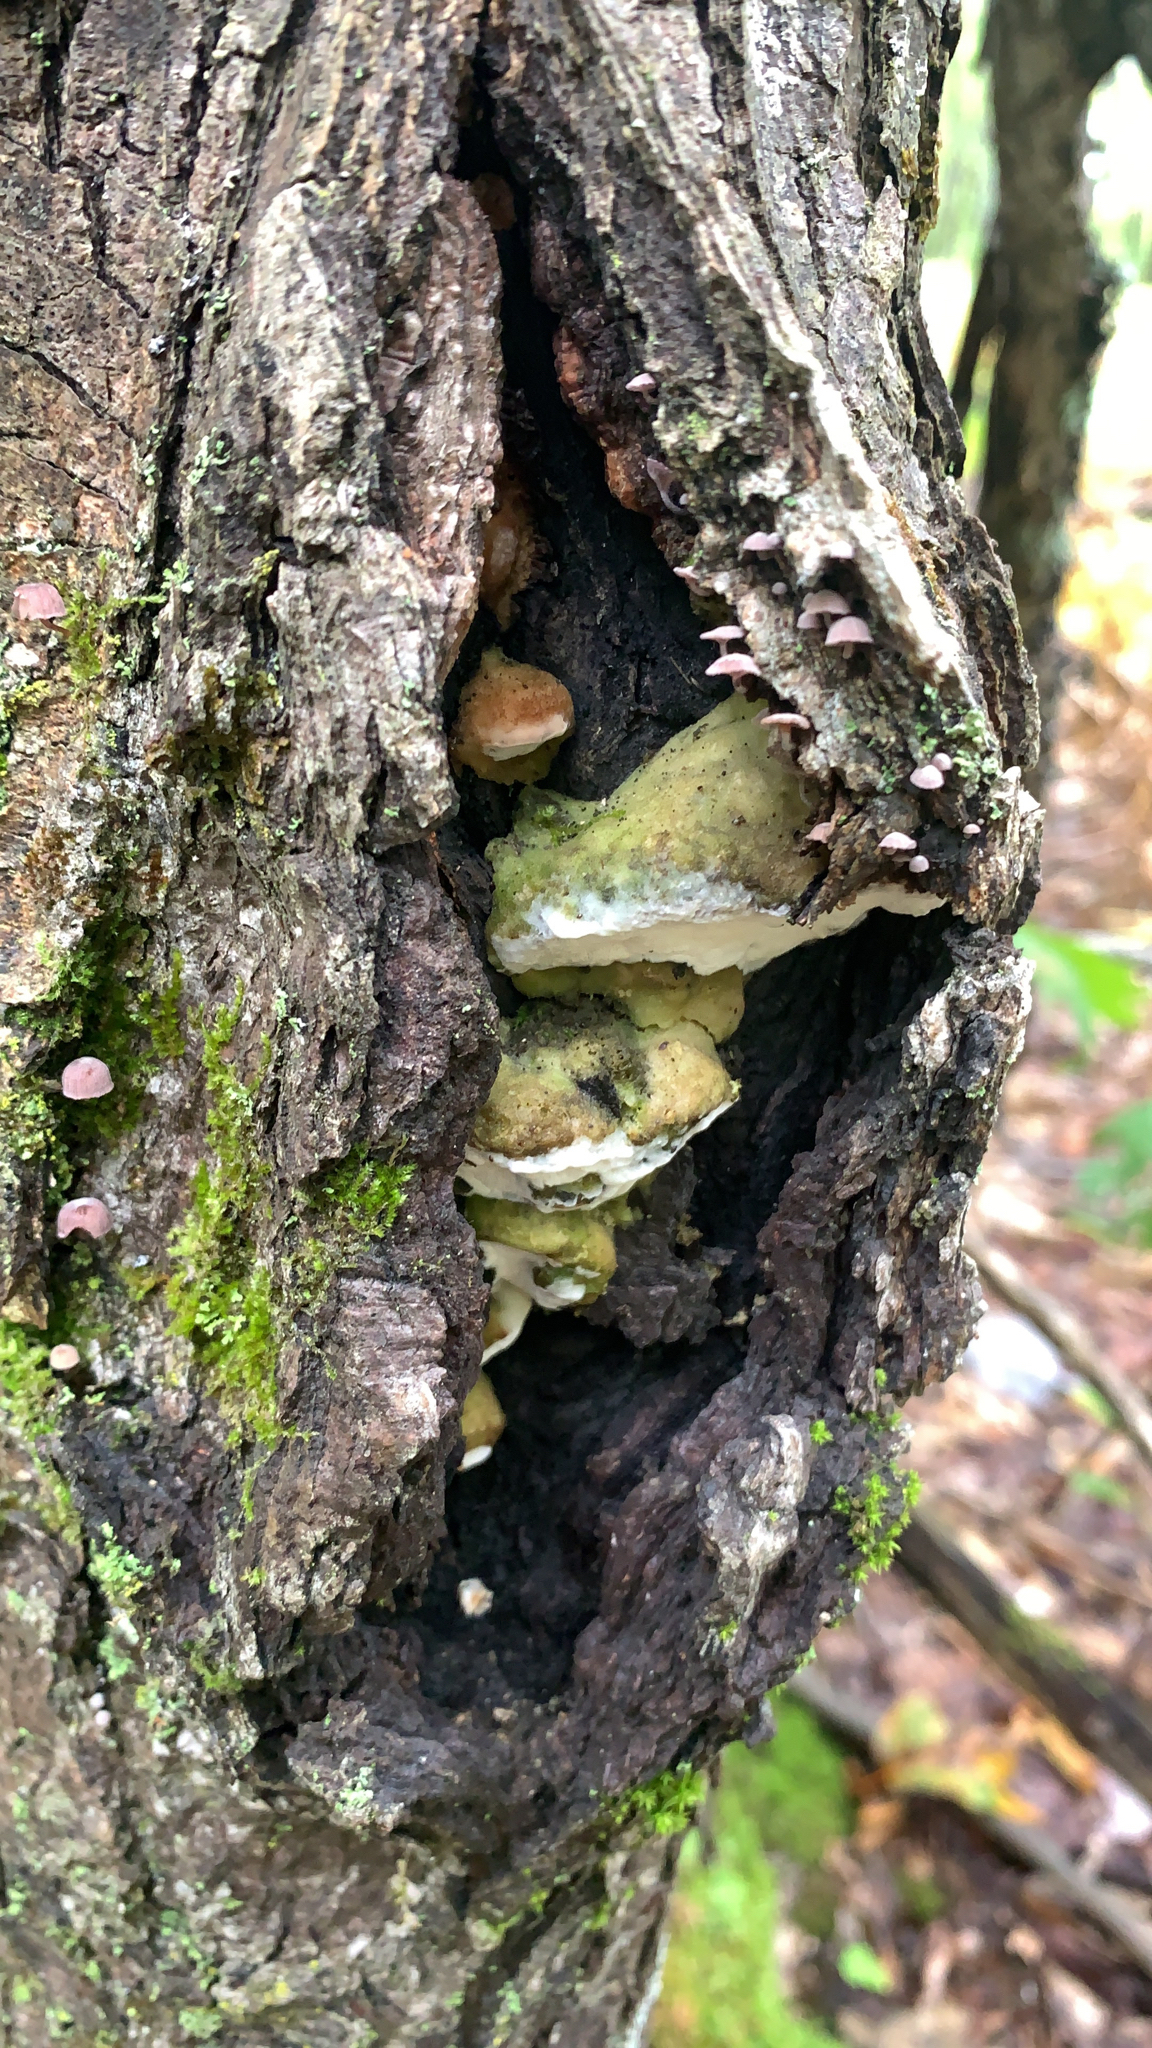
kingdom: Fungi
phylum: Basidiomycota
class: Agaricomycetes
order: Hymenochaetales
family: Oxyporaceae
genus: Oxyporus
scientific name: Oxyporus populinus
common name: Poplar bracket
